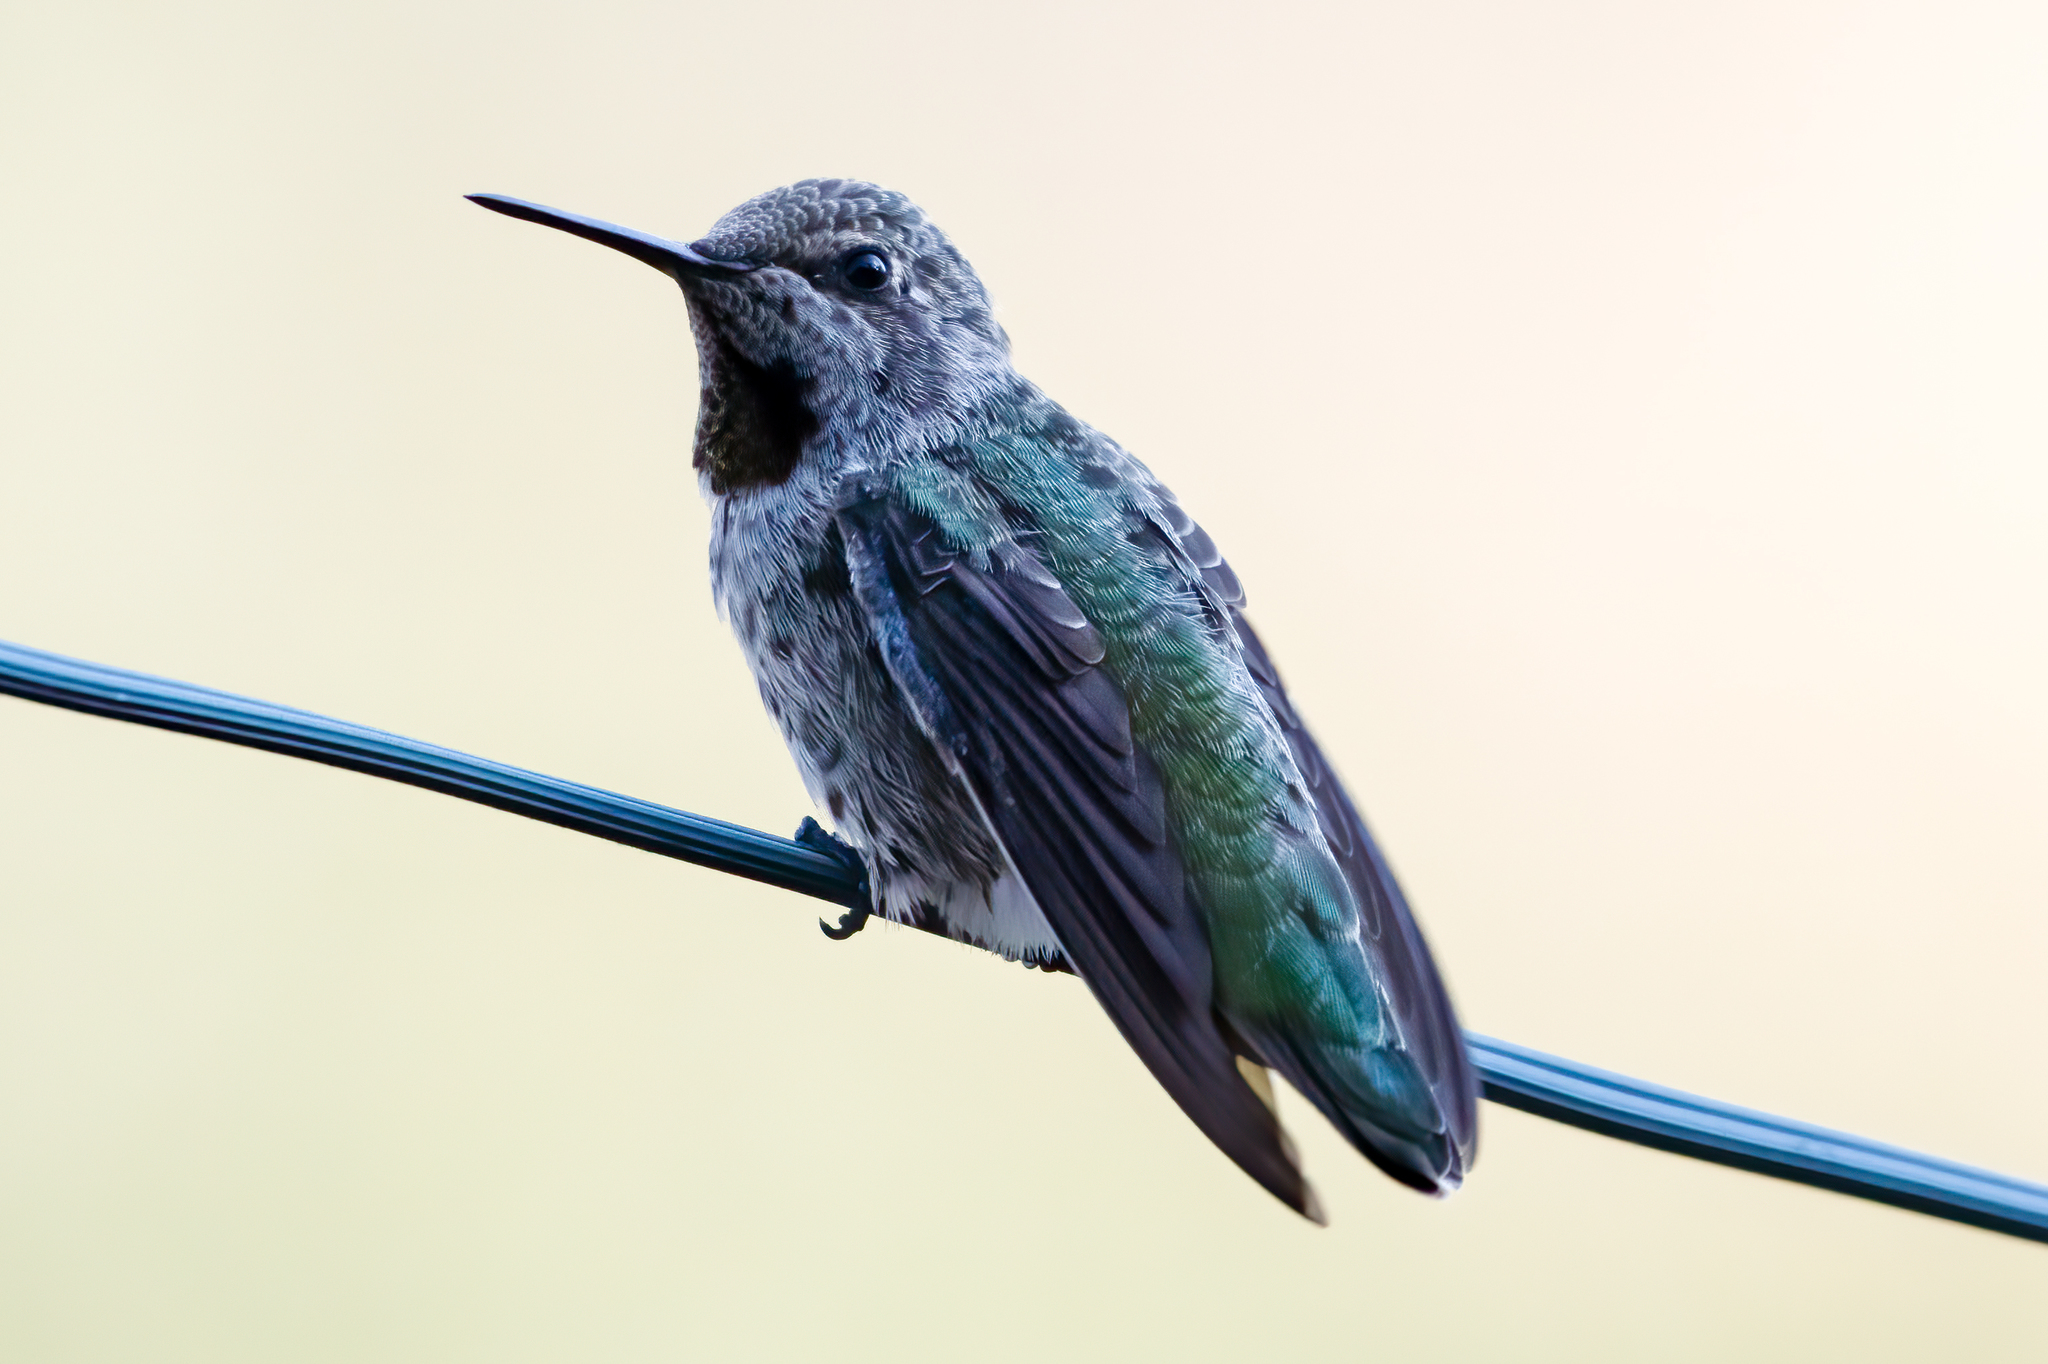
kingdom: Animalia
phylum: Chordata
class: Aves
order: Apodiformes
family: Trochilidae
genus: Calypte
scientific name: Calypte anna
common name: Anna's hummingbird
